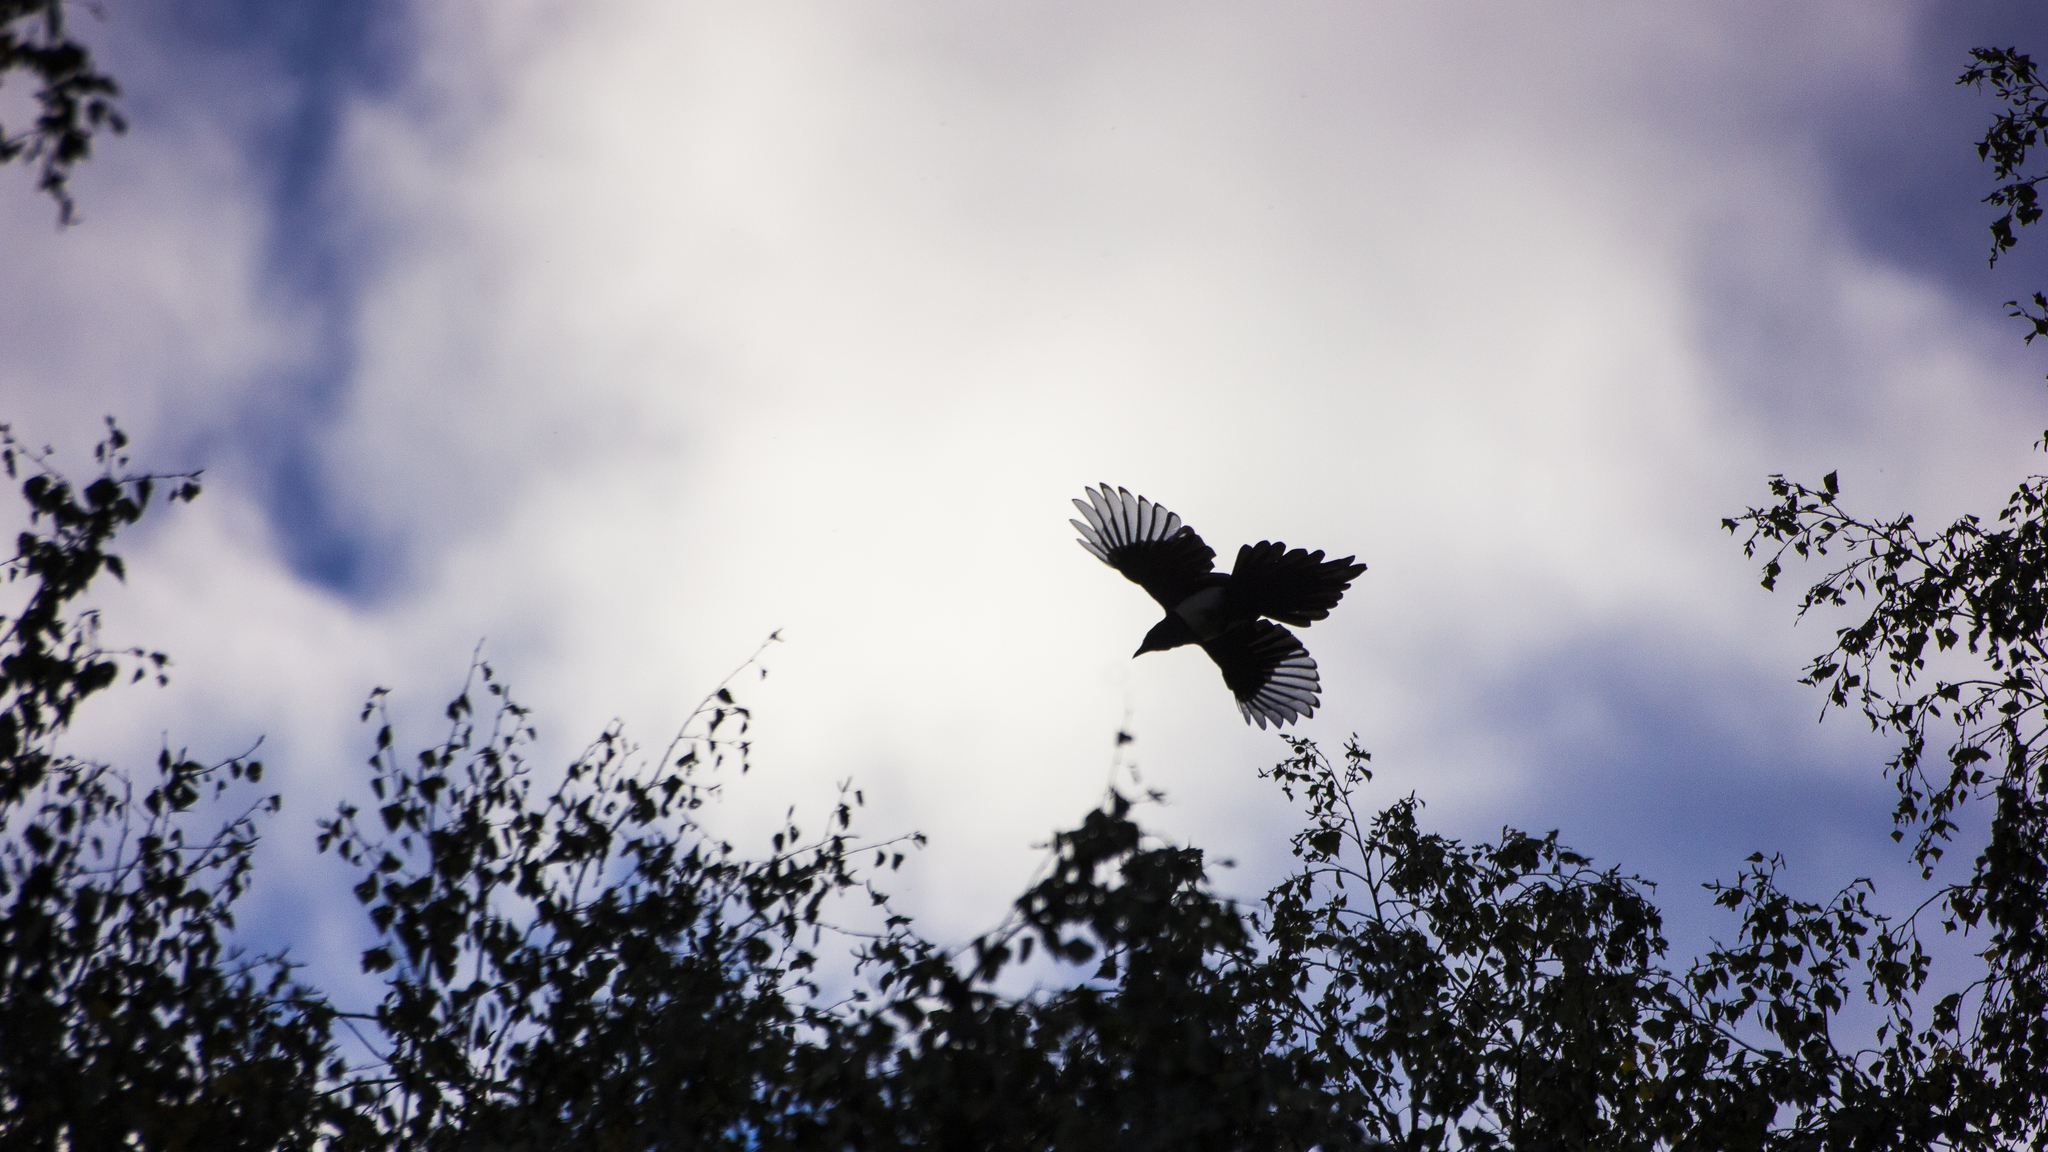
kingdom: Animalia
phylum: Chordata
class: Aves
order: Passeriformes
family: Corvidae
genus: Pica
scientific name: Pica pica
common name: Eurasian magpie
